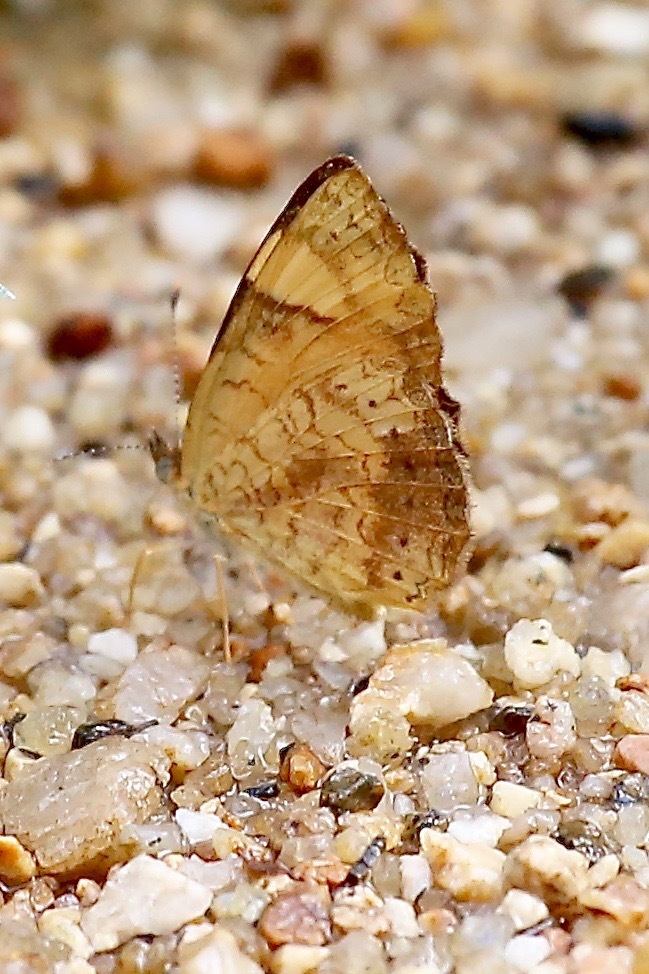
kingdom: Animalia
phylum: Arthropoda
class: Insecta
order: Lepidoptera
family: Nymphalidae
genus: Tegosa
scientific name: Tegosa guatemalena
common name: Guatemalan crescent
